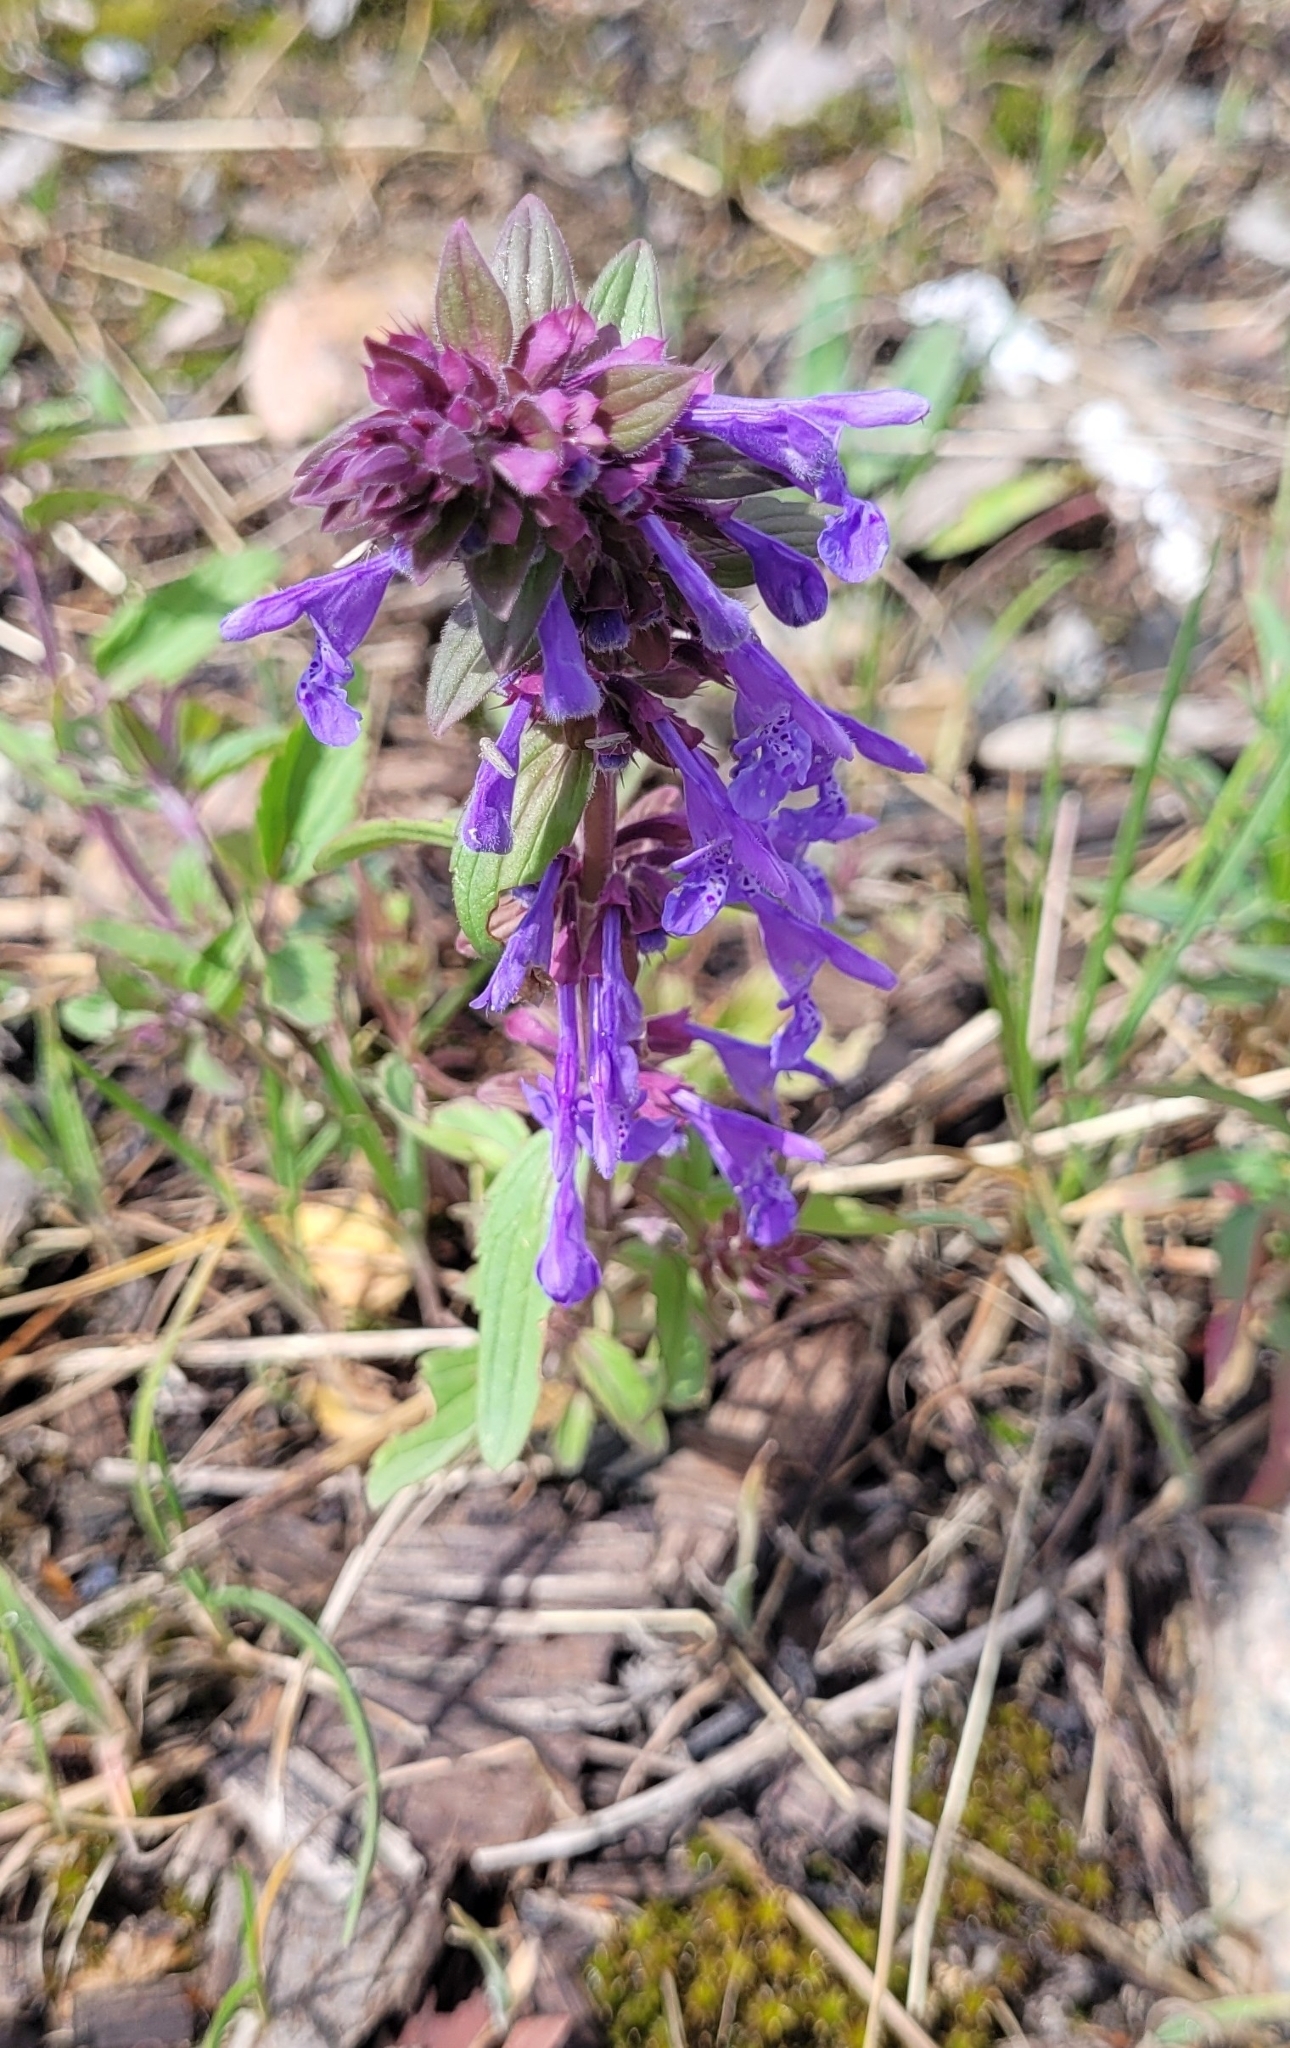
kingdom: Plantae
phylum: Tracheophyta
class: Magnoliopsida
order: Lamiales
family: Lamiaceae
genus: Dracocephalum
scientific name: Dracocephalum nutans
